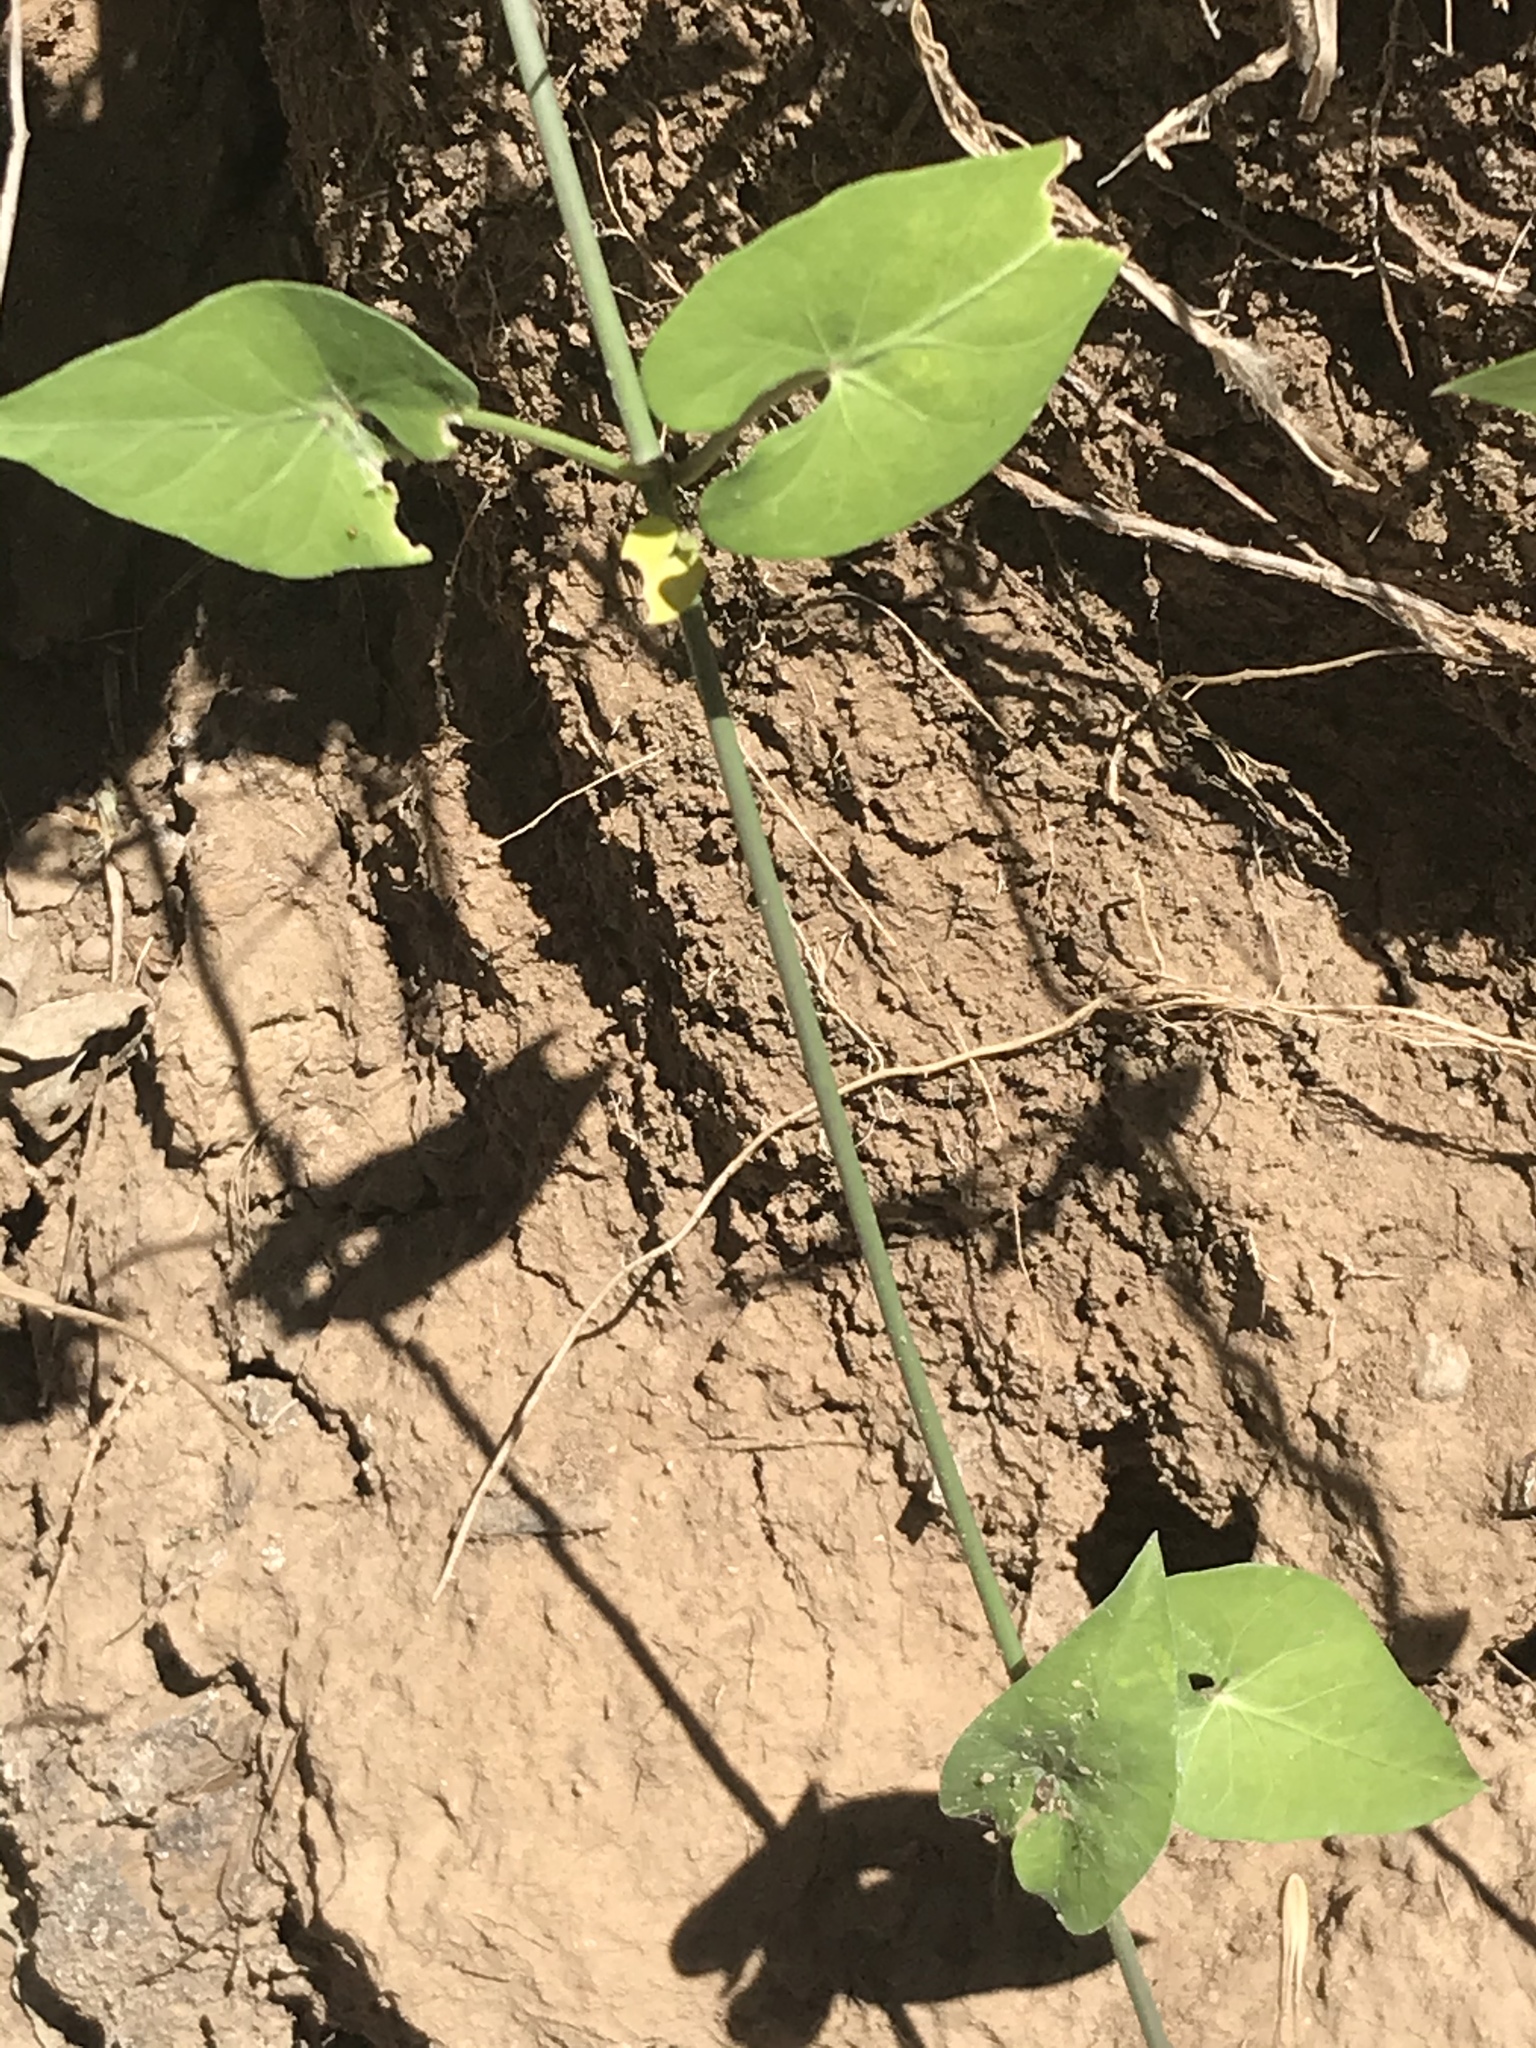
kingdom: Plantae
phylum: Tracheophyta
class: Magnoliopsida
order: Gentianales
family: Apocynaceae
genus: Funastrum
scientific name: Funastrum cynanchoides
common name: Climbing-milkweed
